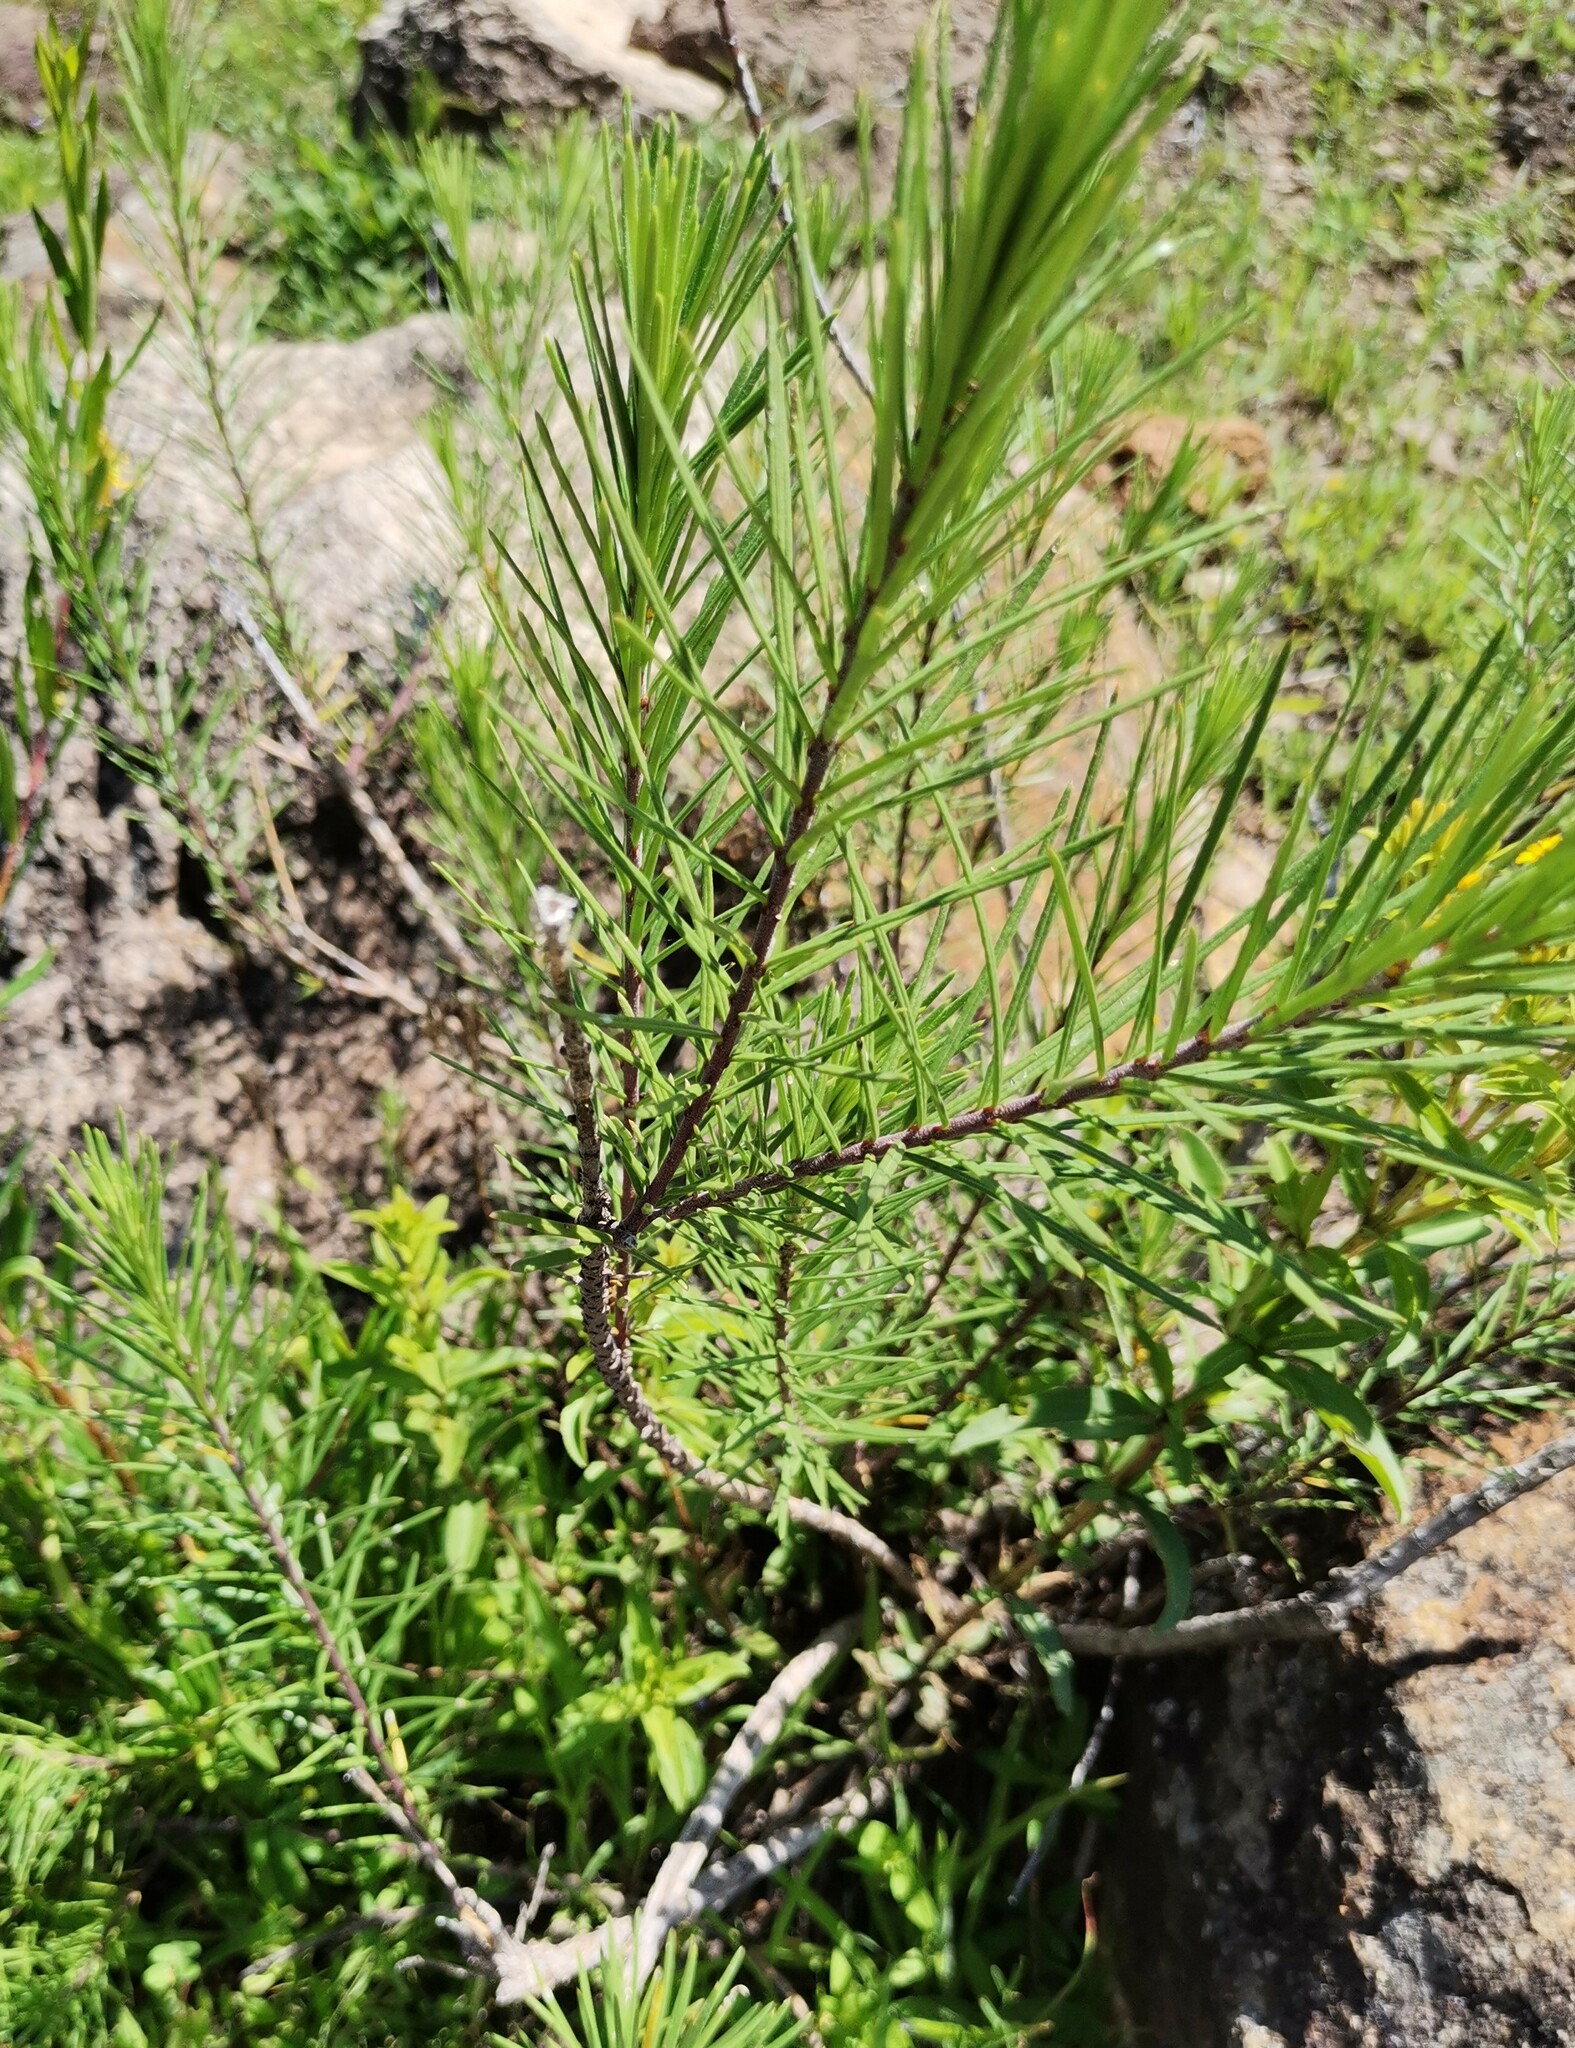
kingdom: Plantae
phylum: Tracheophyta
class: Magnoliopsida
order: Gentianales
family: Apocynaceae
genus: Asclepias
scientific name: Asclepias linaria
